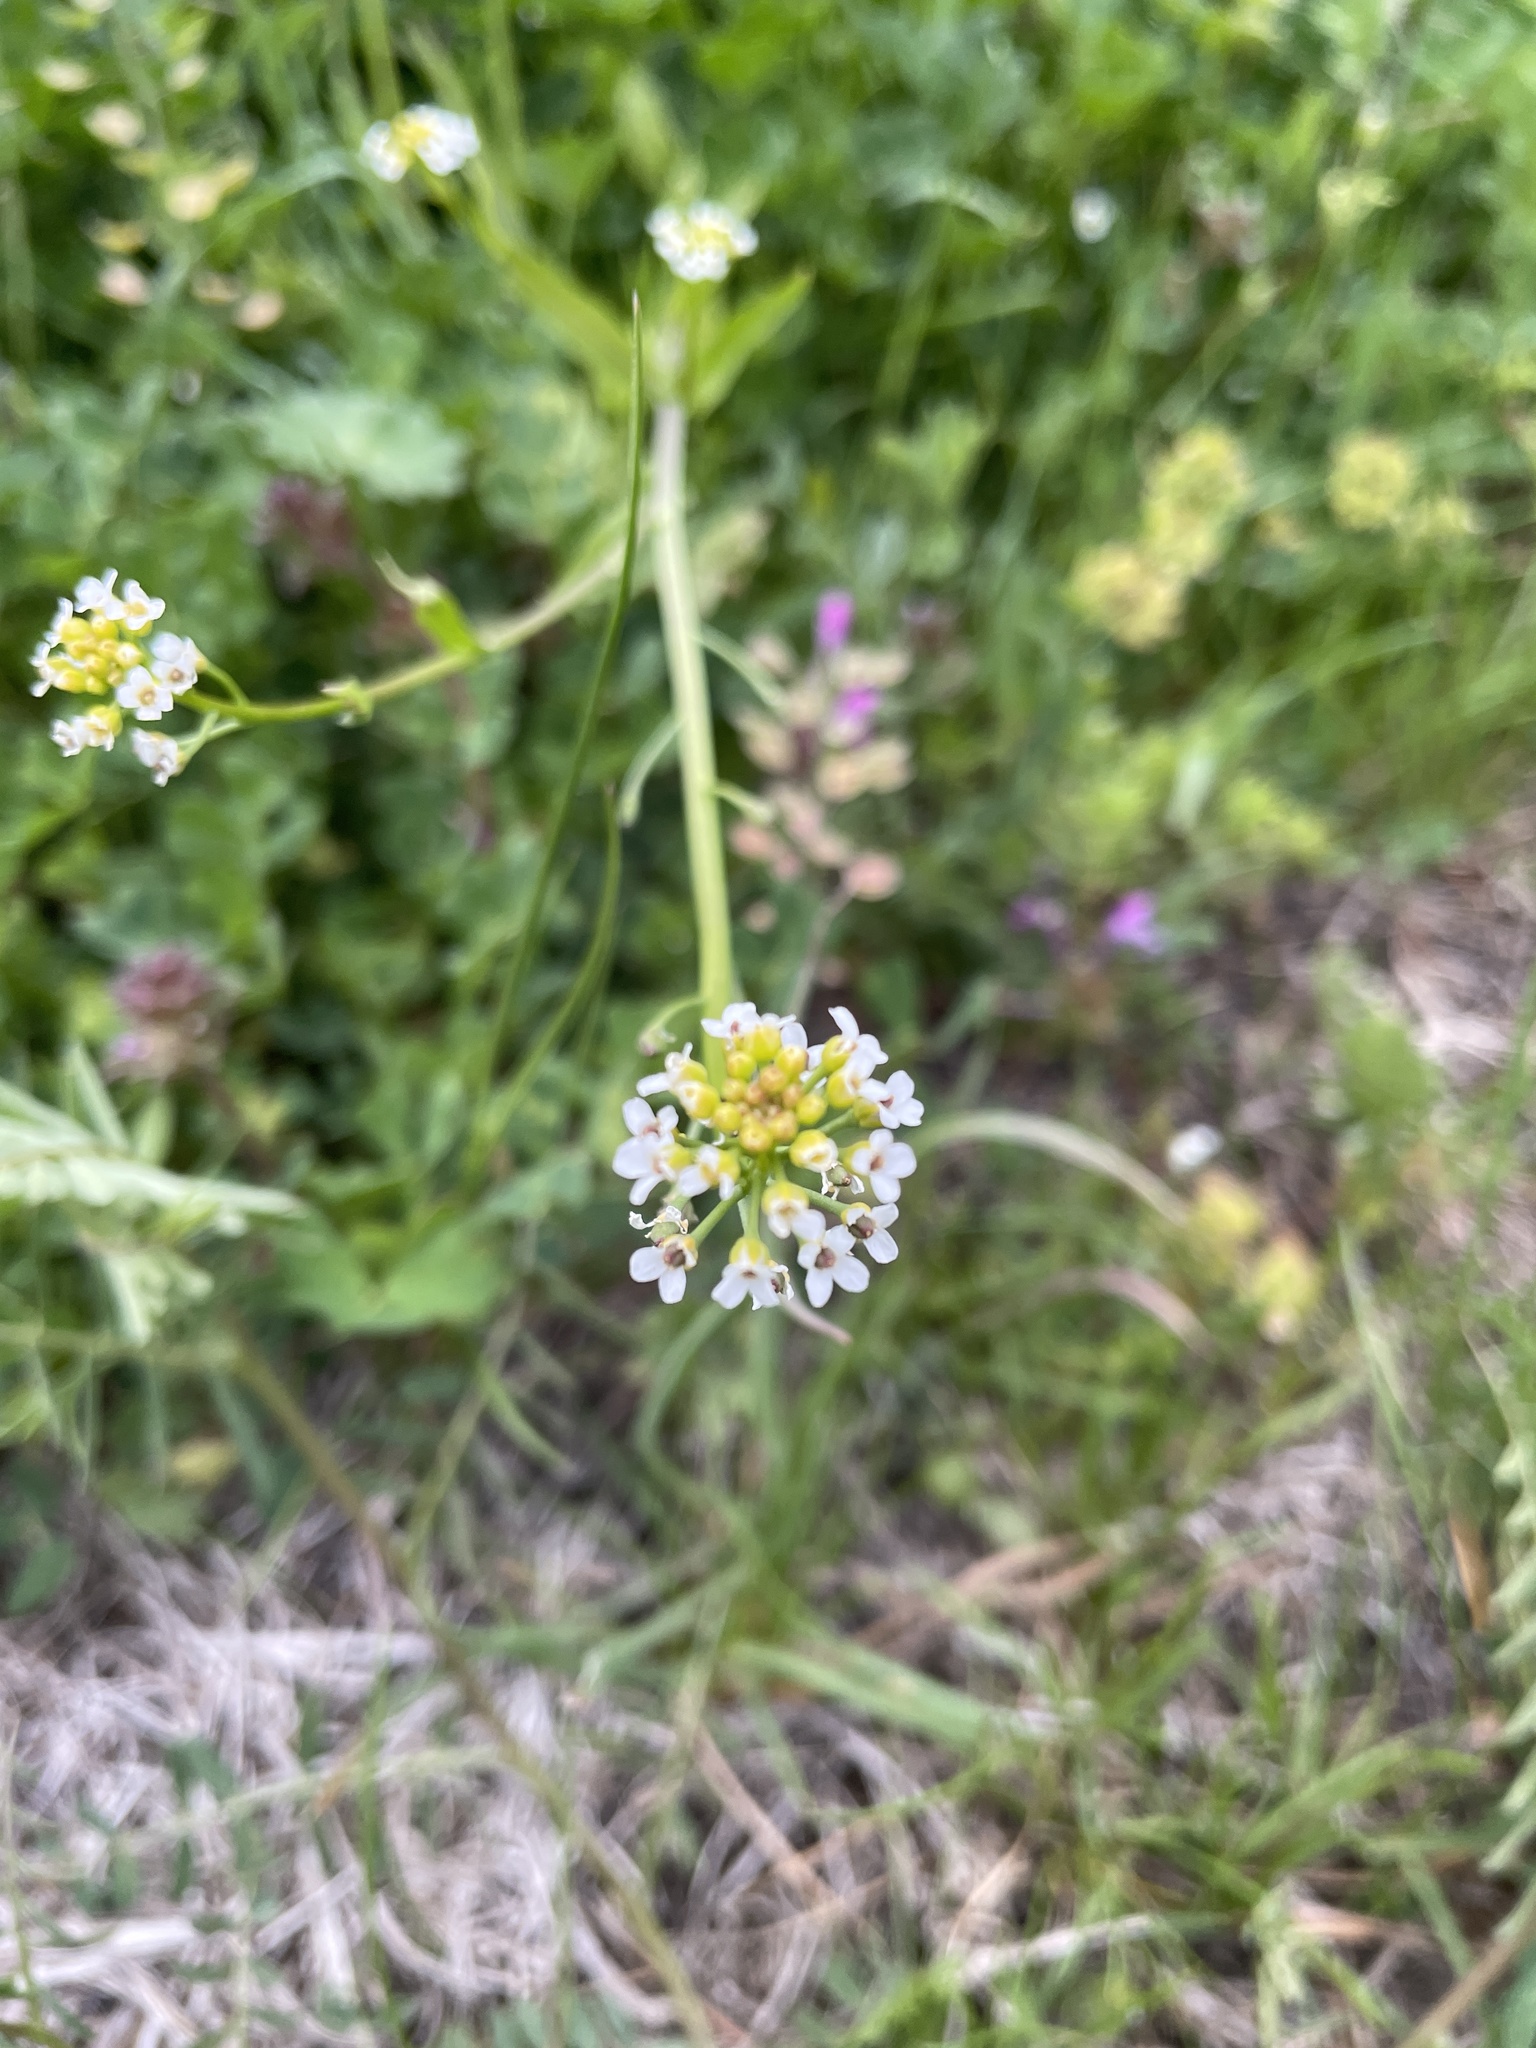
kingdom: Plantae
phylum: Tracheophyta
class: Magnoliopsida
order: Brassicales
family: Brassicaceae
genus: Calepina
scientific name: Calepina irregularis
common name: White ballmustard
